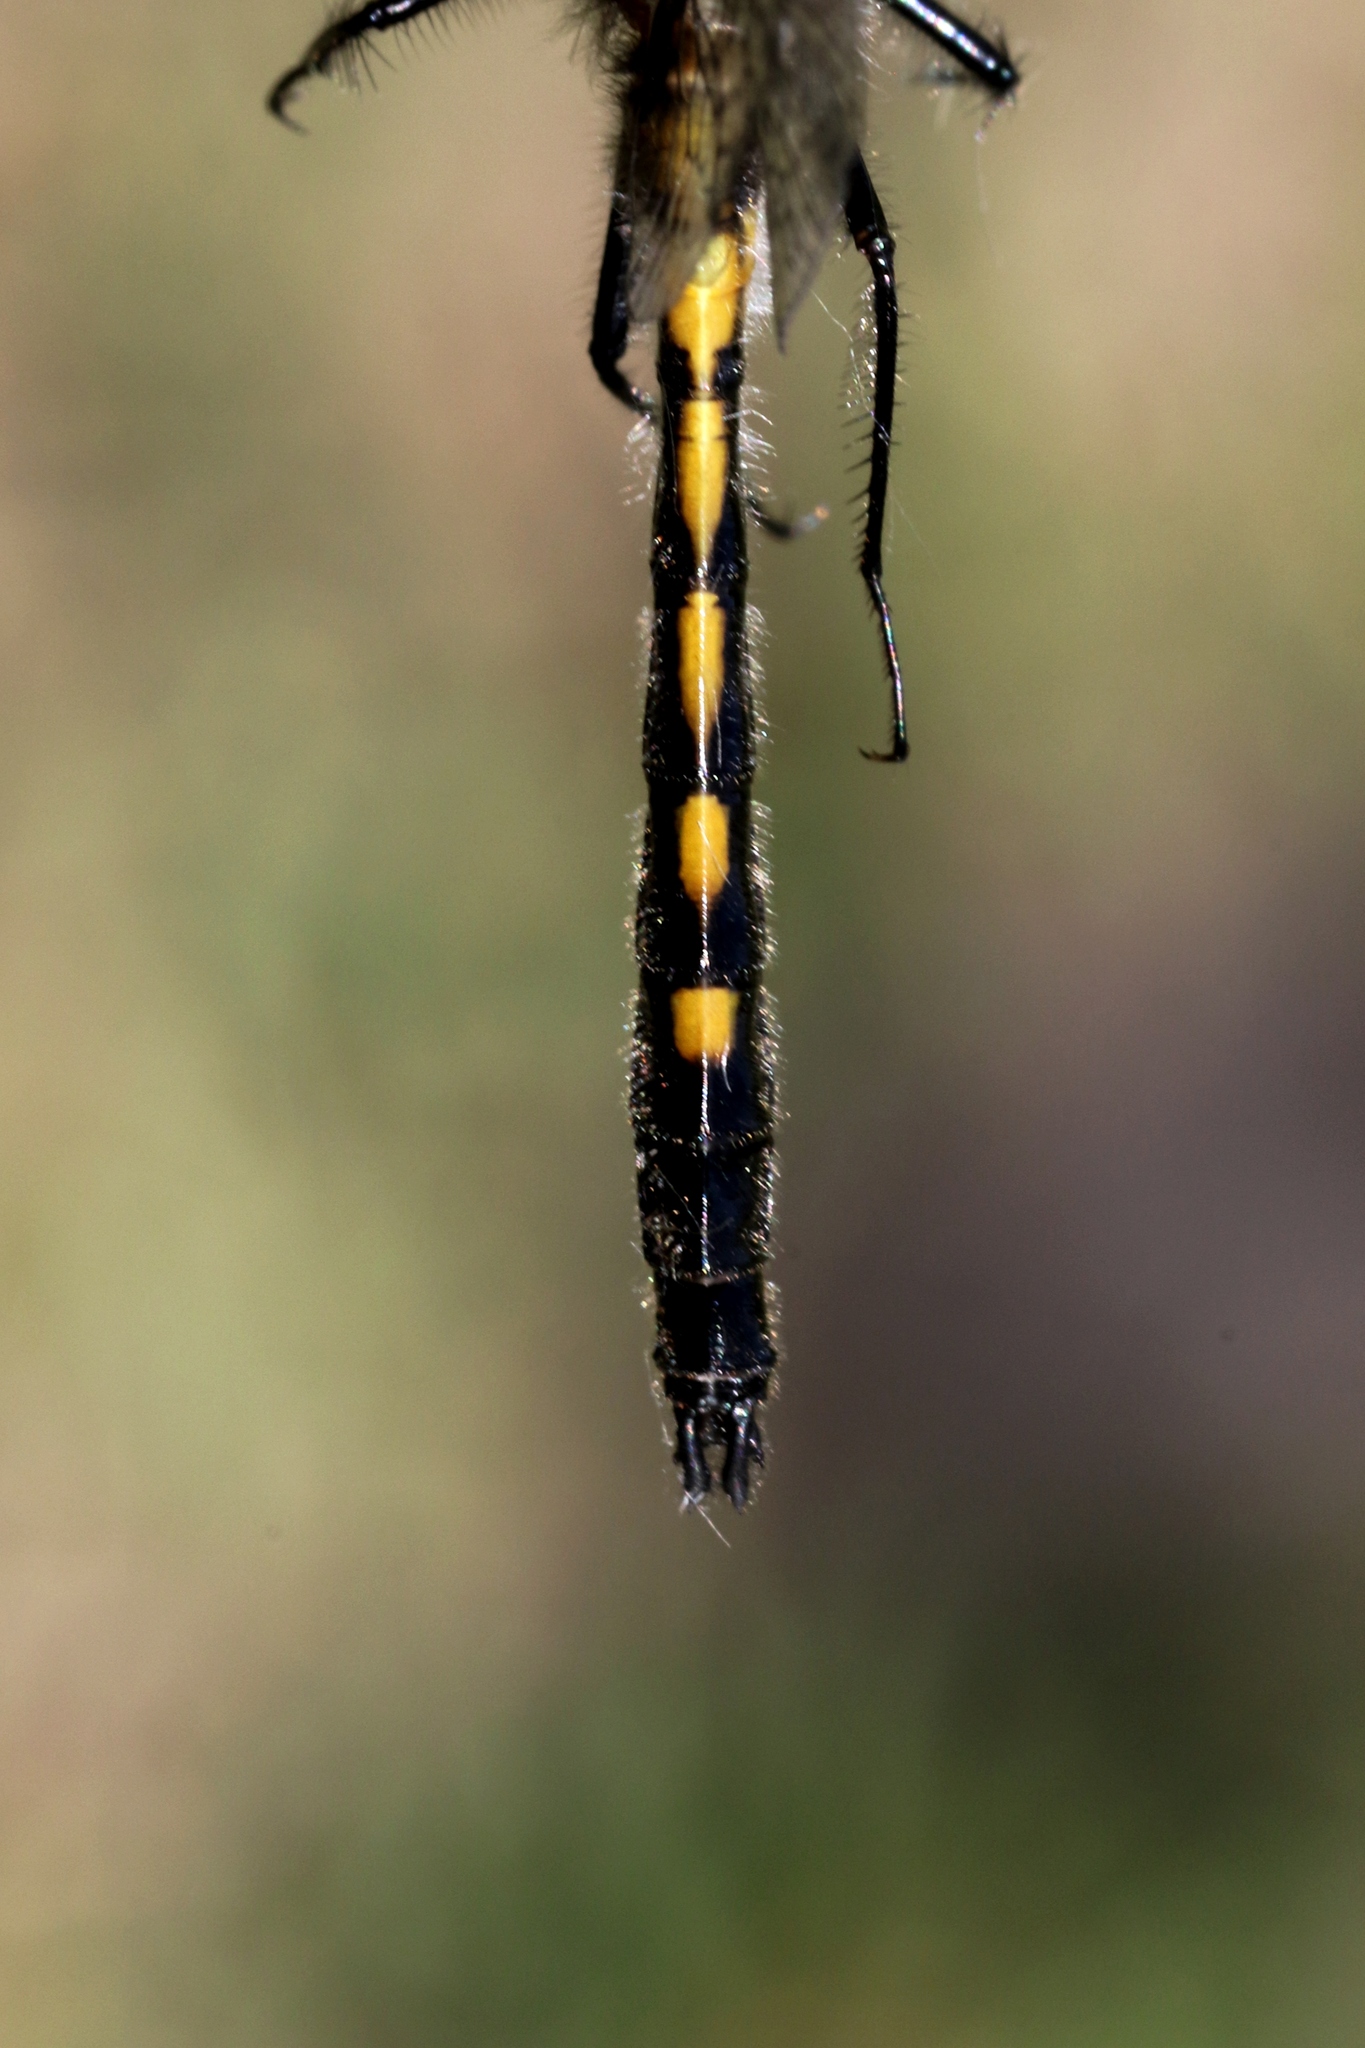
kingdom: Animalia
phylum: Arthropoda
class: Insecta
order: Odonata
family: Libellulidae
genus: Leucorrhinia
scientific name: Leucorrhinia intacta
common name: Dot-tailed whiteface
